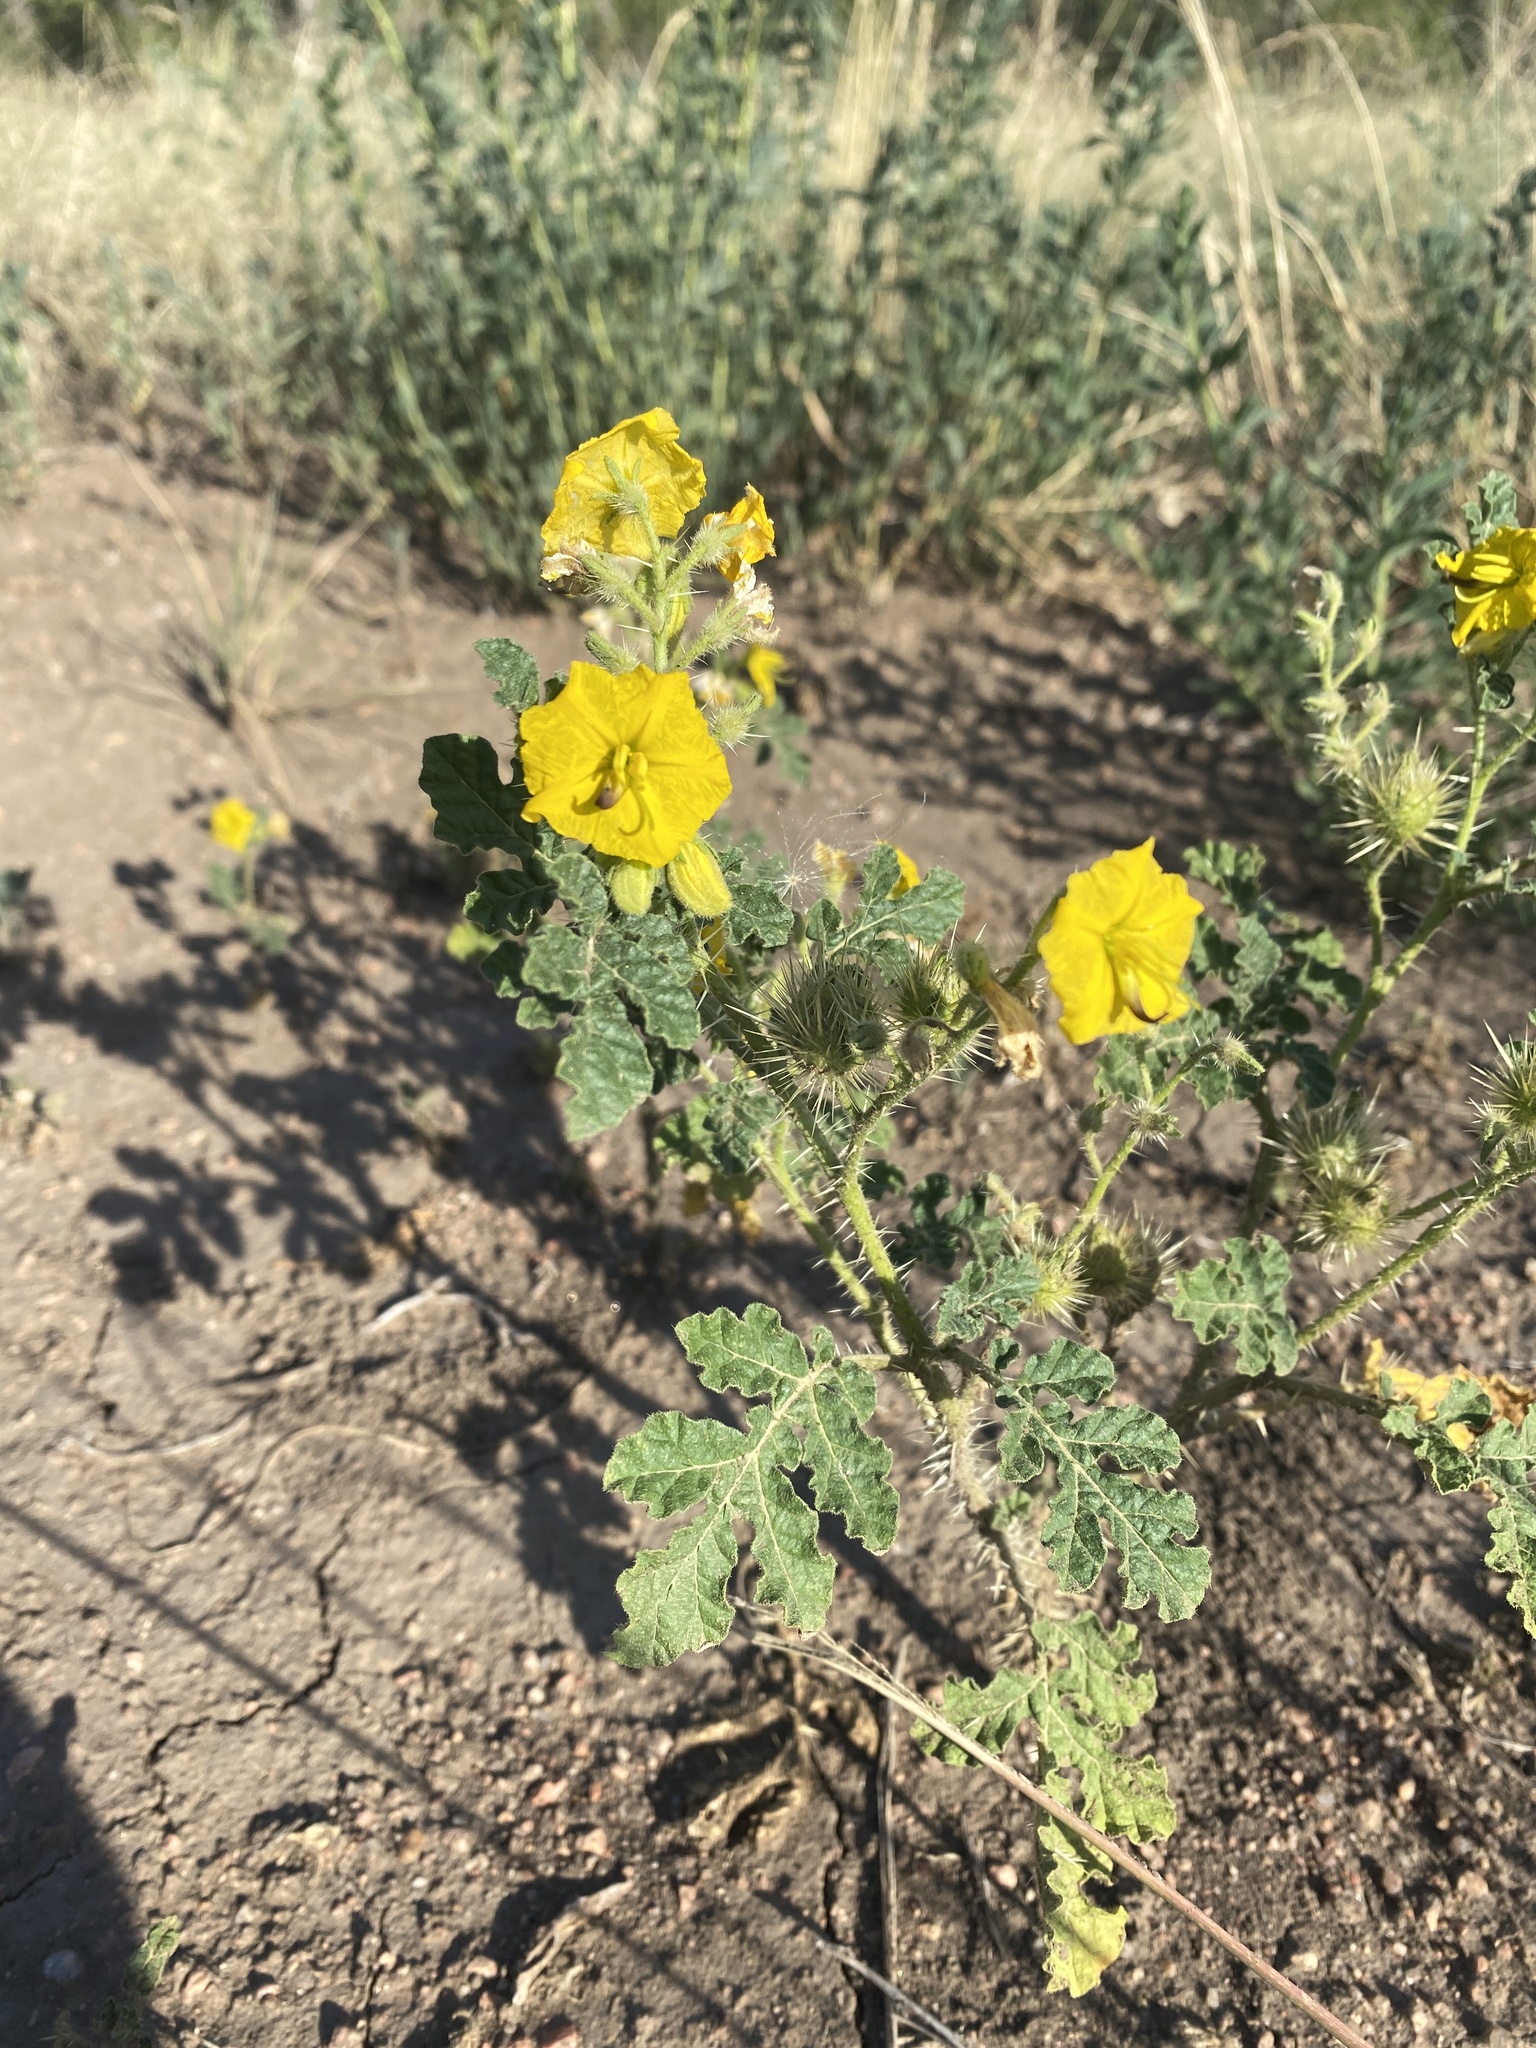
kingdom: Plantae
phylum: Tracheophyta
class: Magnoliopsida
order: Solanales
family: Solanaceae
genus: Solanum
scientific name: Solanum angustifolium
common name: Buffalobur nightshade
